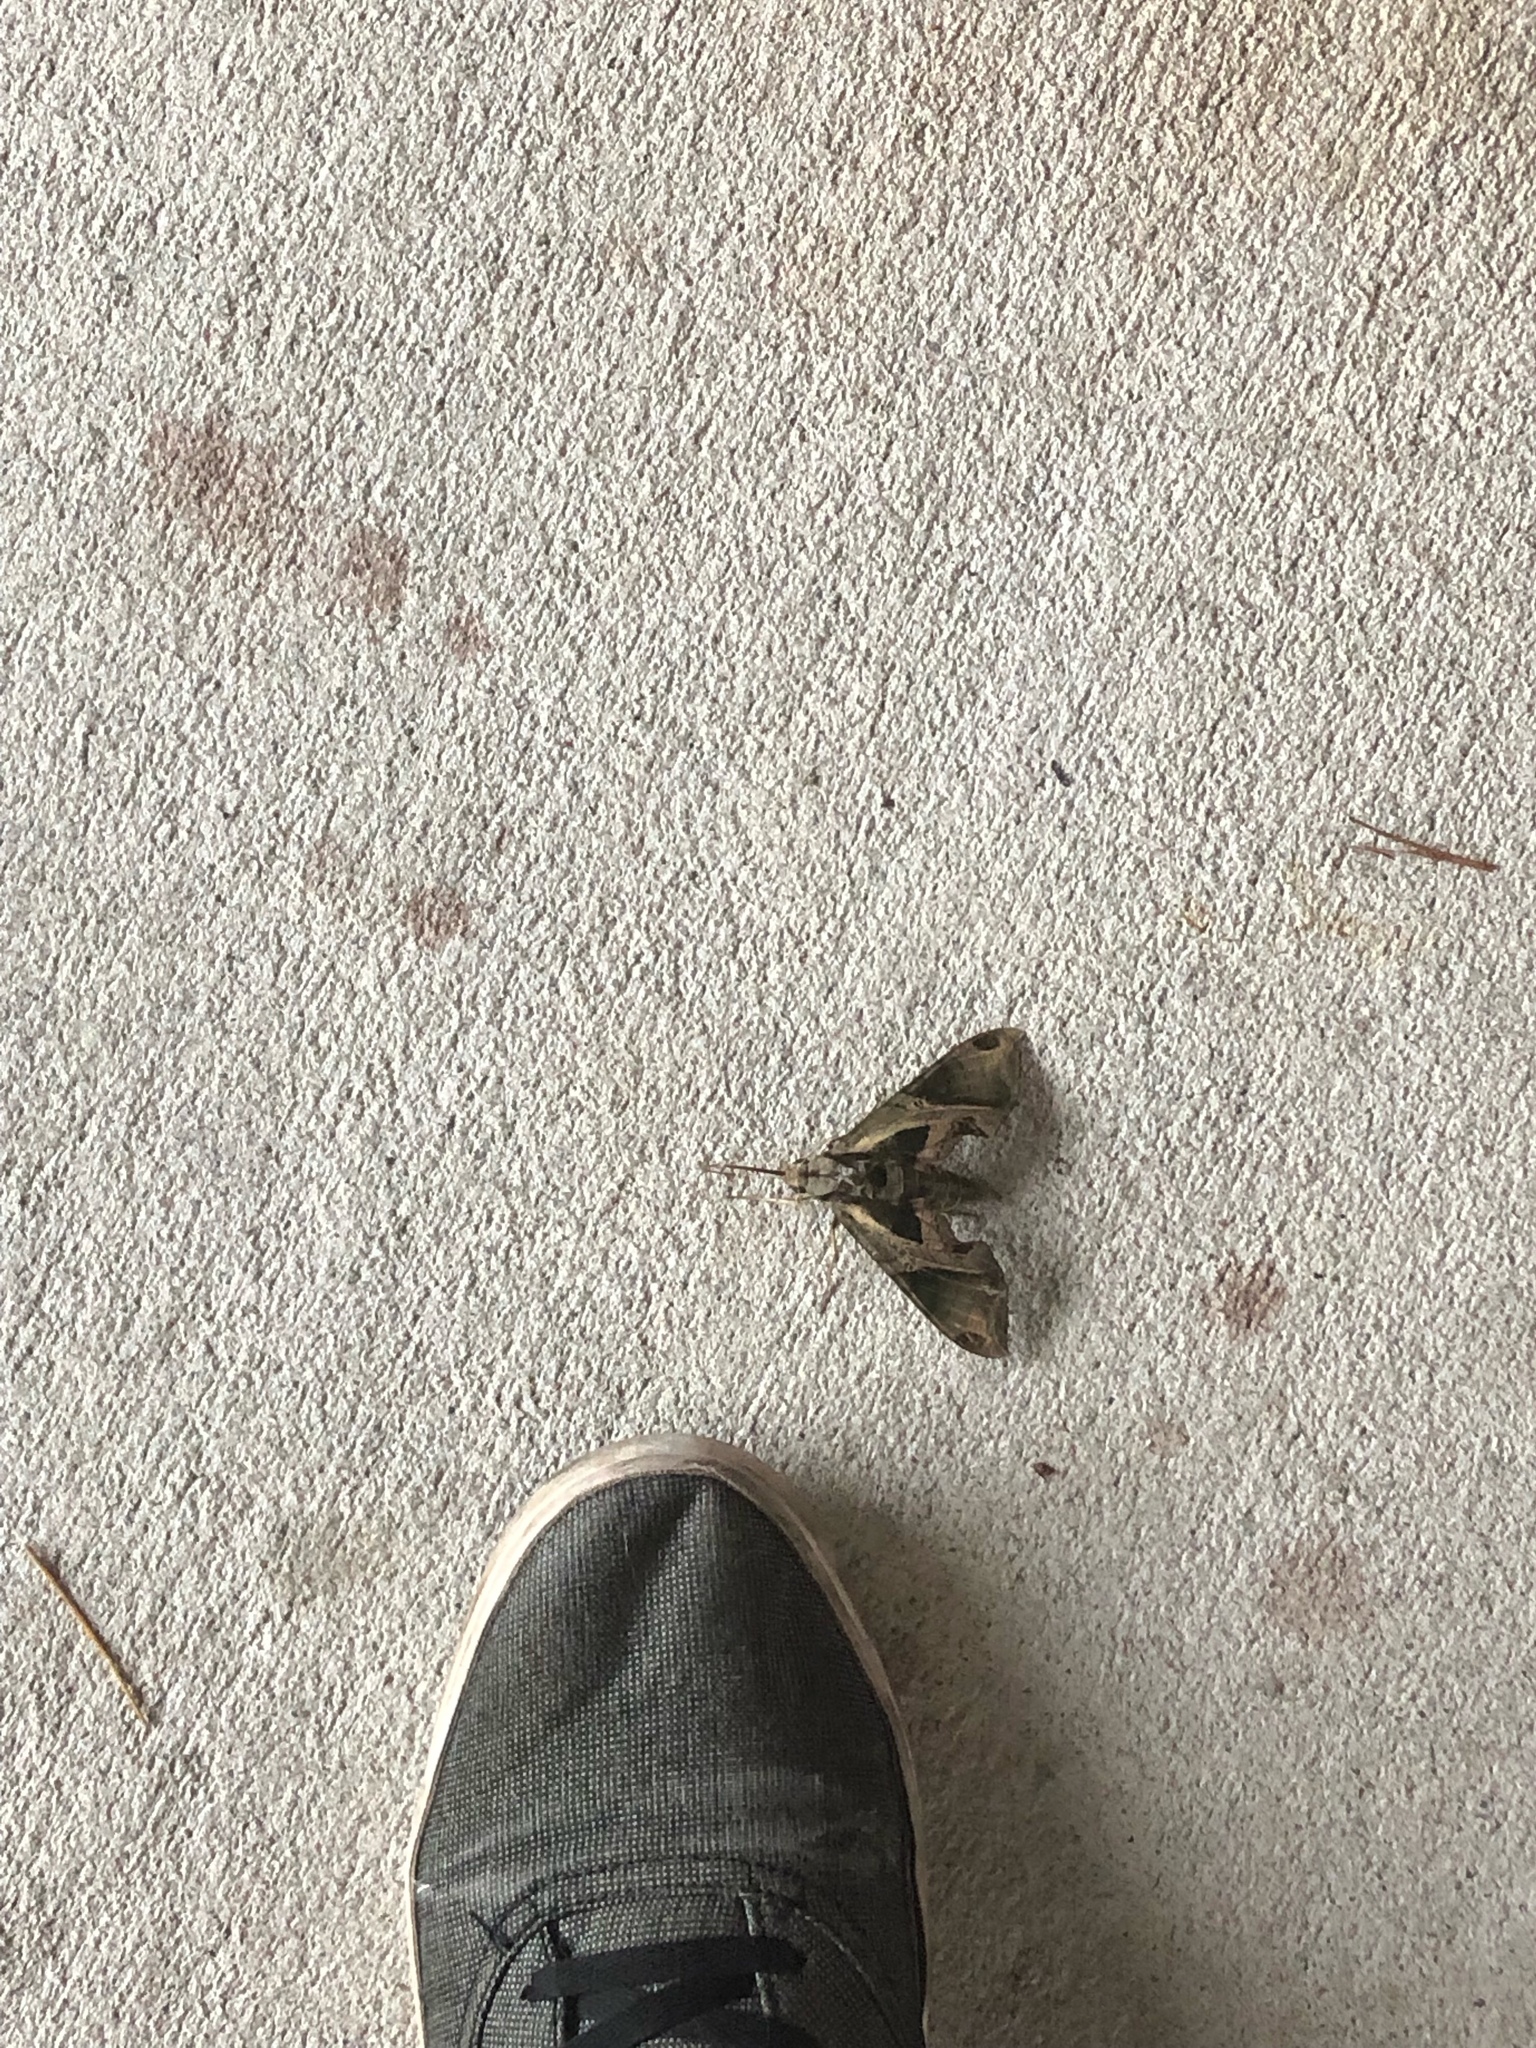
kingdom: Animalia
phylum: Arthropoda
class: Insecta
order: Lepidoptera
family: Sphingidae
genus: Eumorpha
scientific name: Eumorpha pandorus
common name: Pandora sphinx
